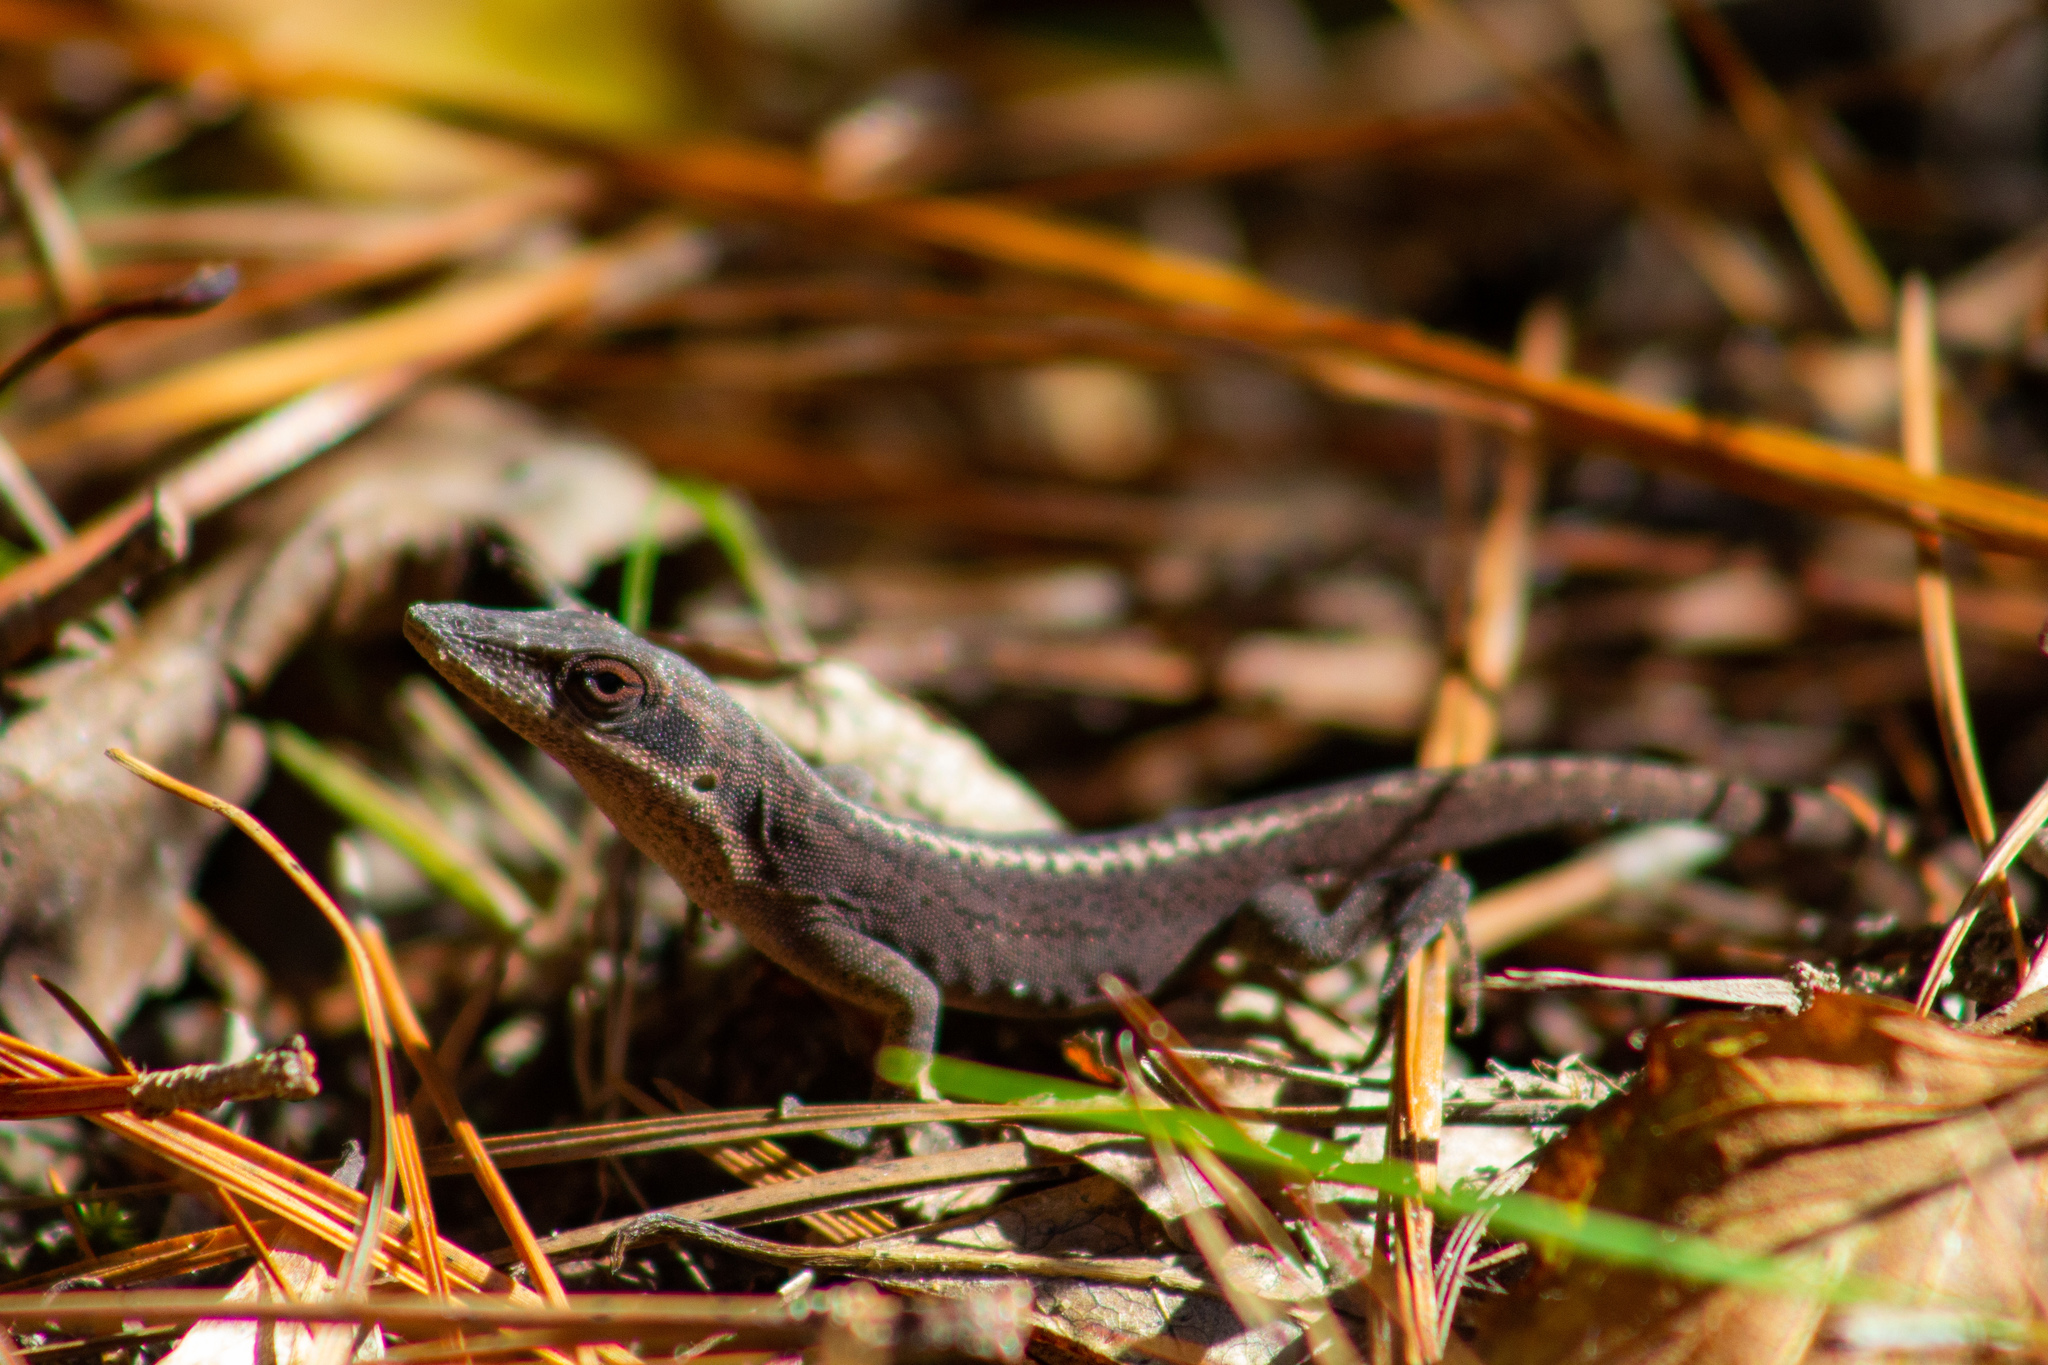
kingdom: Animalia
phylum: Chordata
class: Squamata
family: Dactyloidae
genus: Anolis
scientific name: Anolis carolinensis
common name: Green anole
